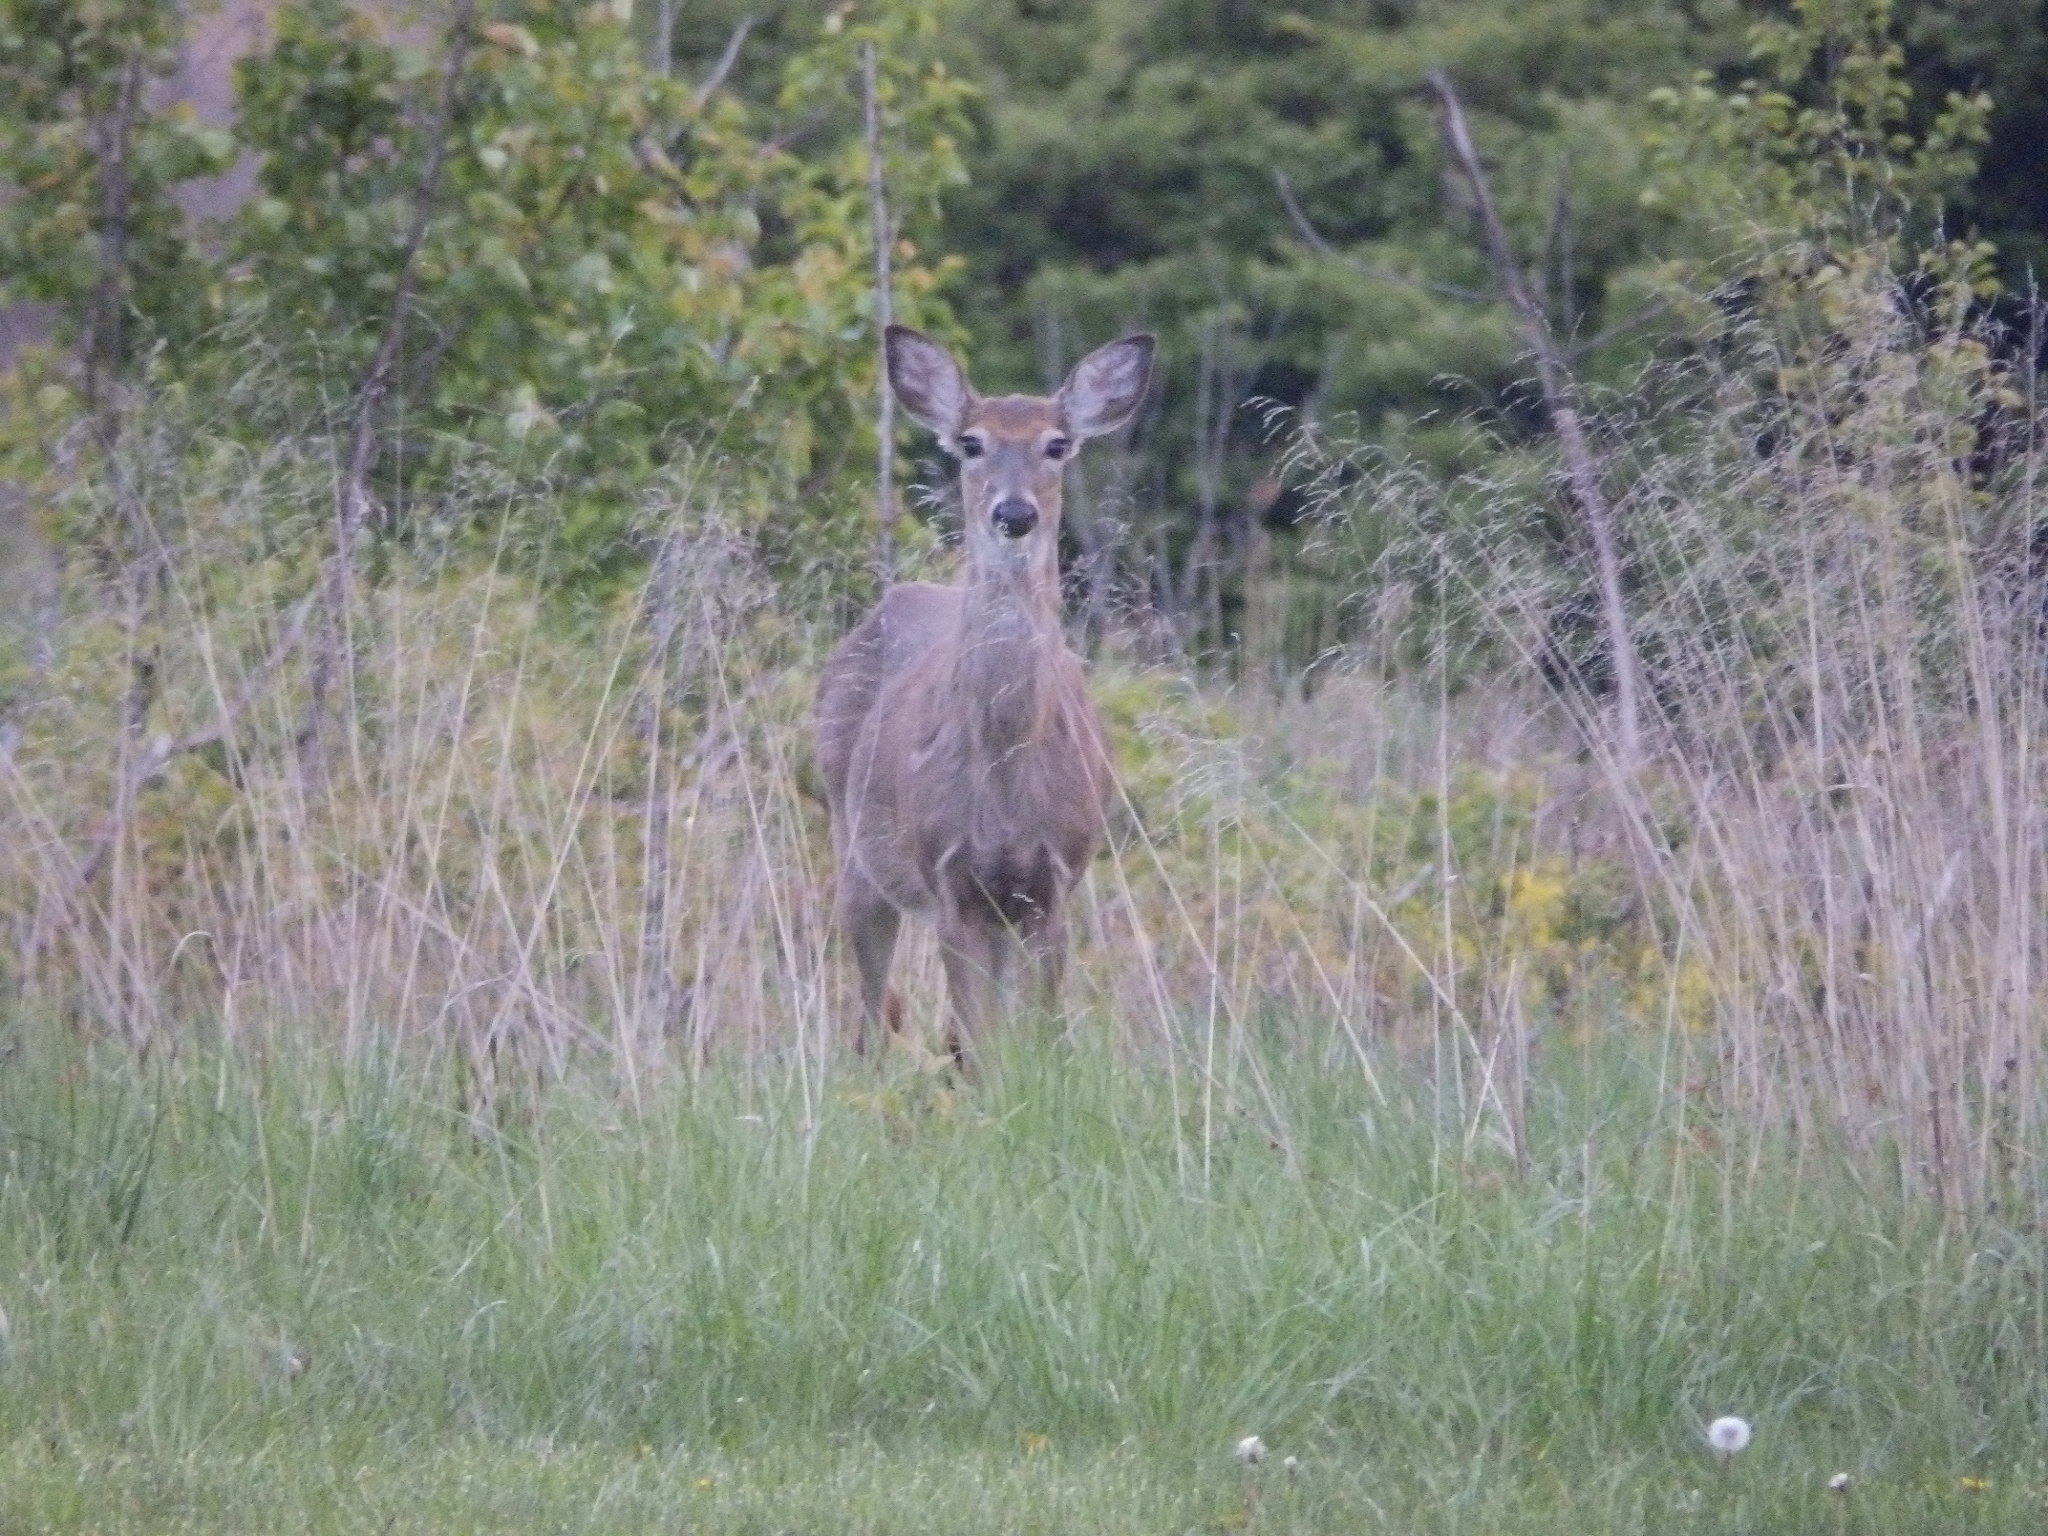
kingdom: Animalia
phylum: Chordata
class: Mammalia
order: Artiodactyla
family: Cervidae
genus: Odocoileus
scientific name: Odocoileus virginianus
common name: White-tailed deer
